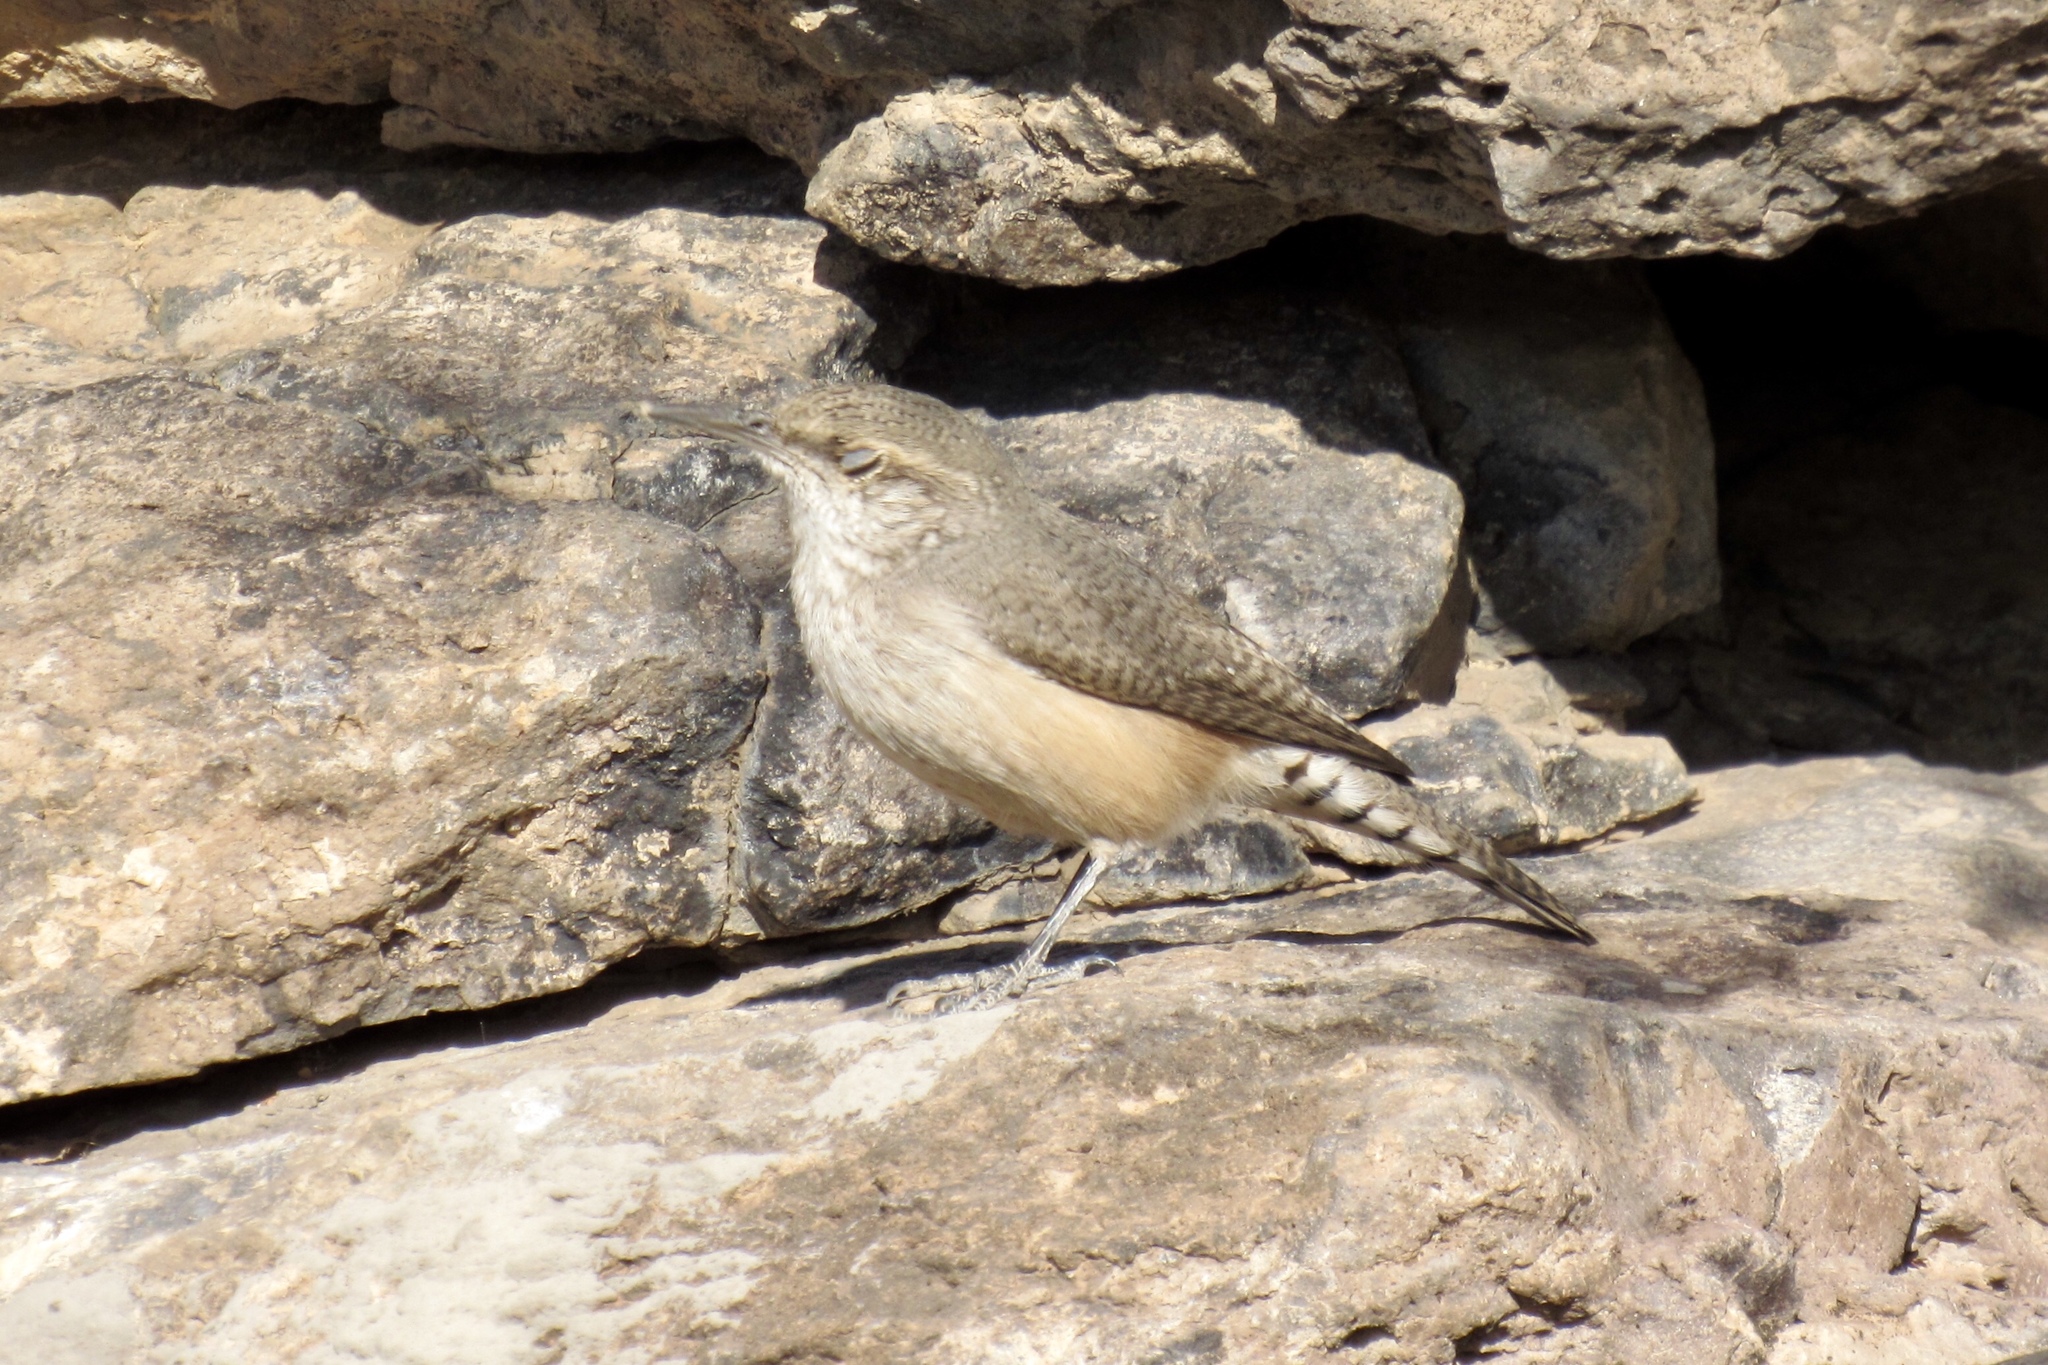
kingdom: Animalia
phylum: Chordata
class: Aves
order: Passeriformes
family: Troglodytidae
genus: Salpinctes
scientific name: Salpinctes obsoletus
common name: Rock wren
